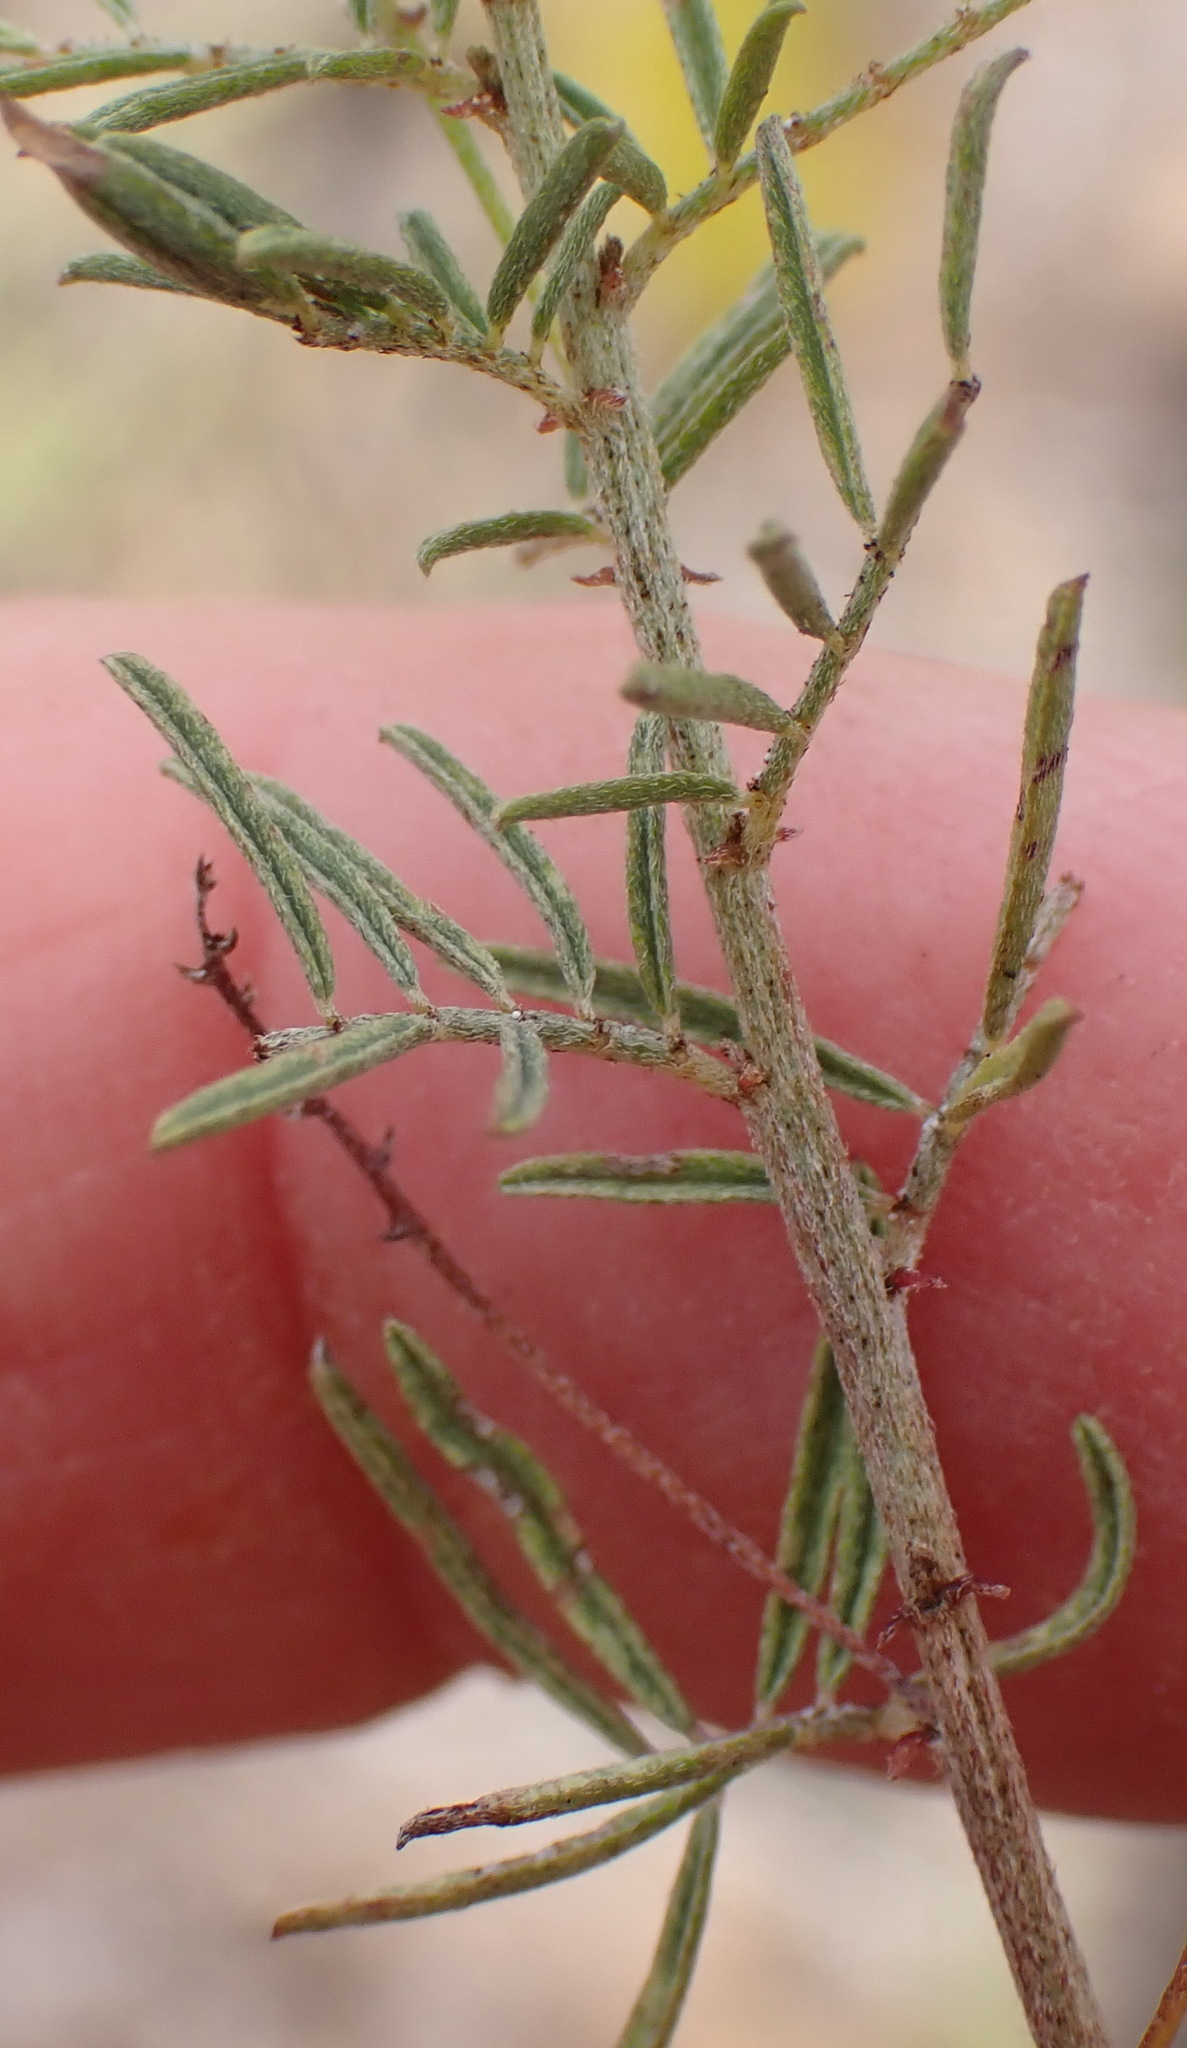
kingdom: Plantae
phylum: Tracheophyta
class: Magnoliopsida
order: Fabales
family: Fabaceae
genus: Indigofera
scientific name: Indigofera verrucosa
